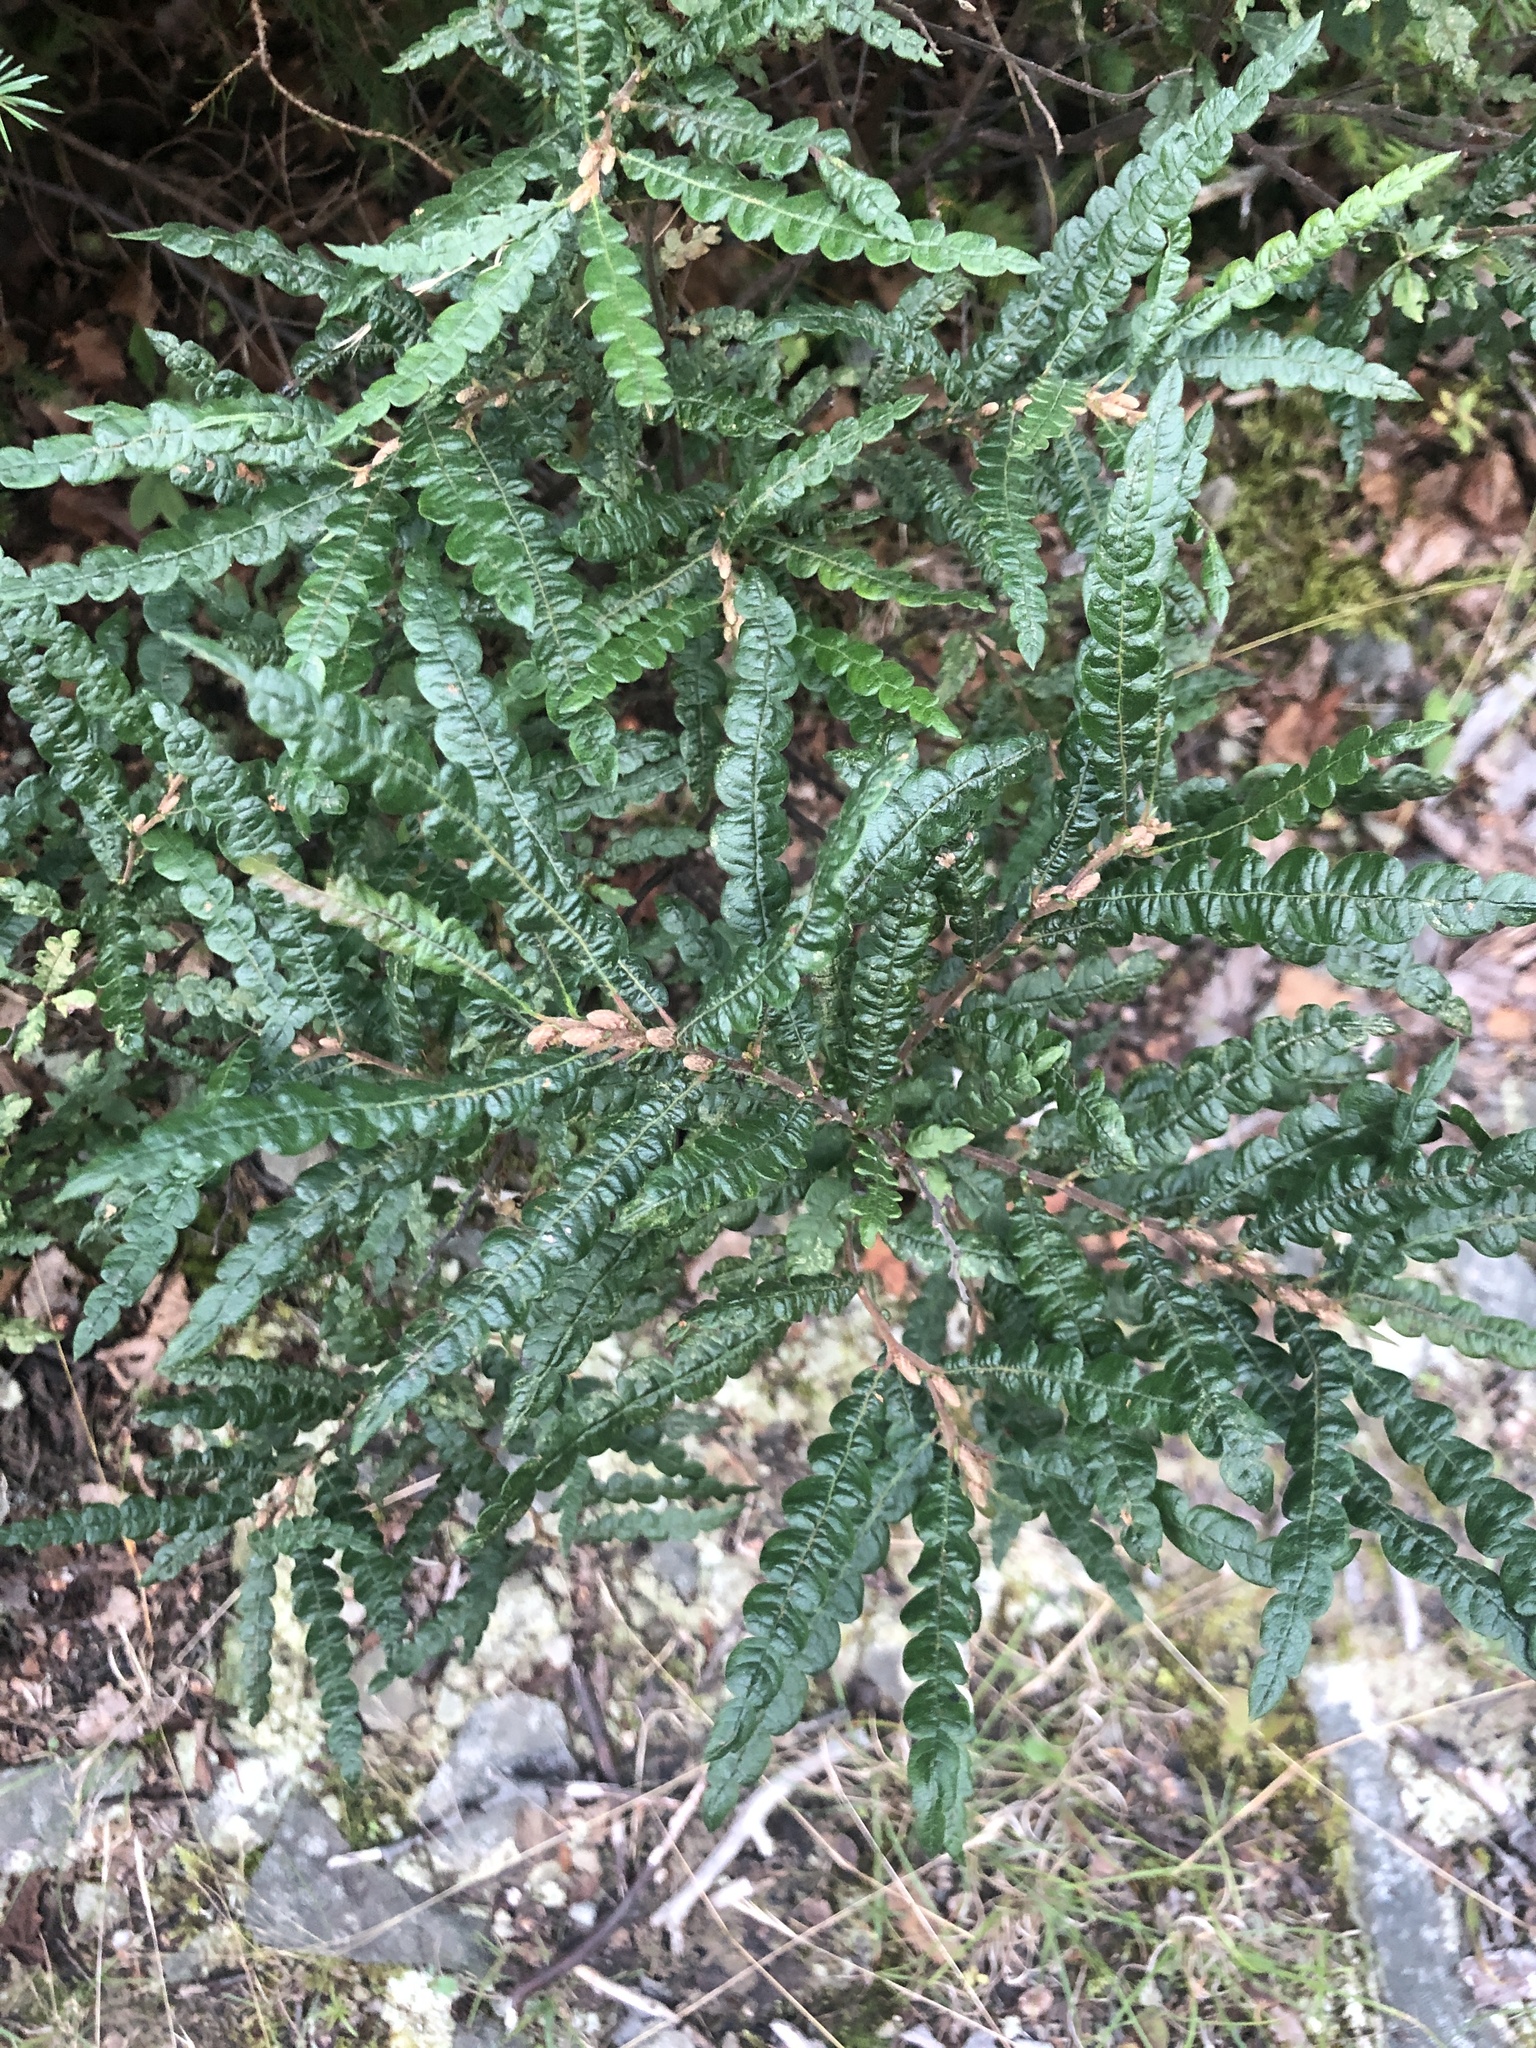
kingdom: Plantae
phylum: Tracheophyta
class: Magnoliopsida
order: Fagales
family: Myricaceae
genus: Comptonia
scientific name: Comptonia peregrina
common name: Sweet-fern
